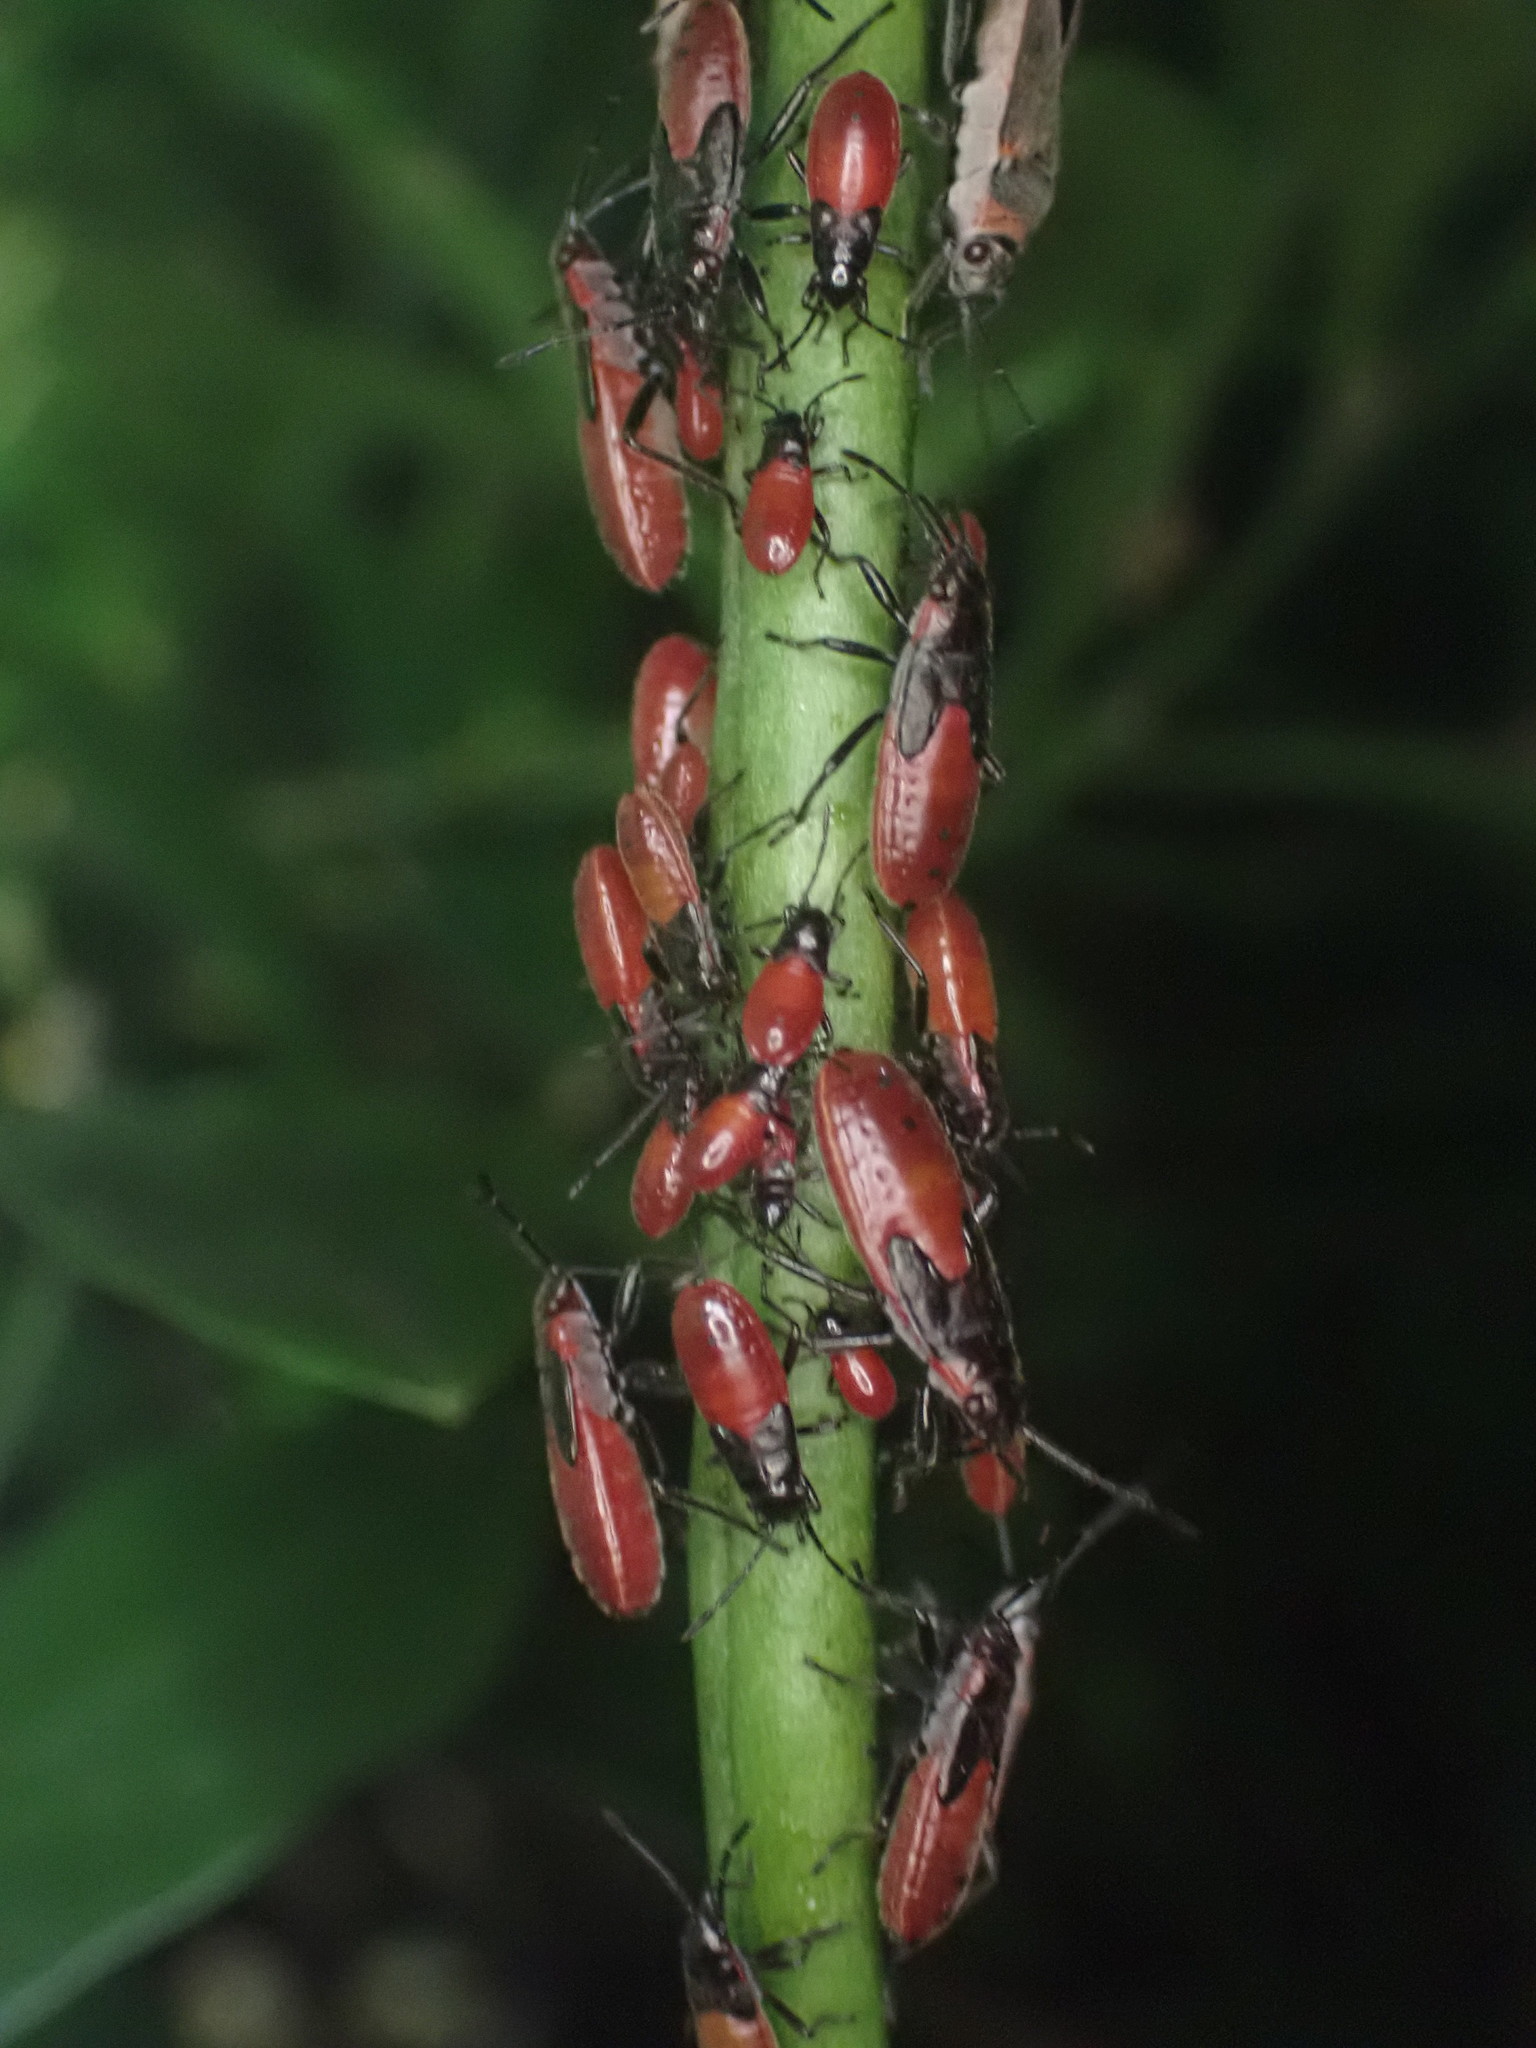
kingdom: Animalia
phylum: Arthropoda
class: Insecta
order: Hemiptera
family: Lygaeidae
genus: Arocatus
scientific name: Arocatus rusticus
